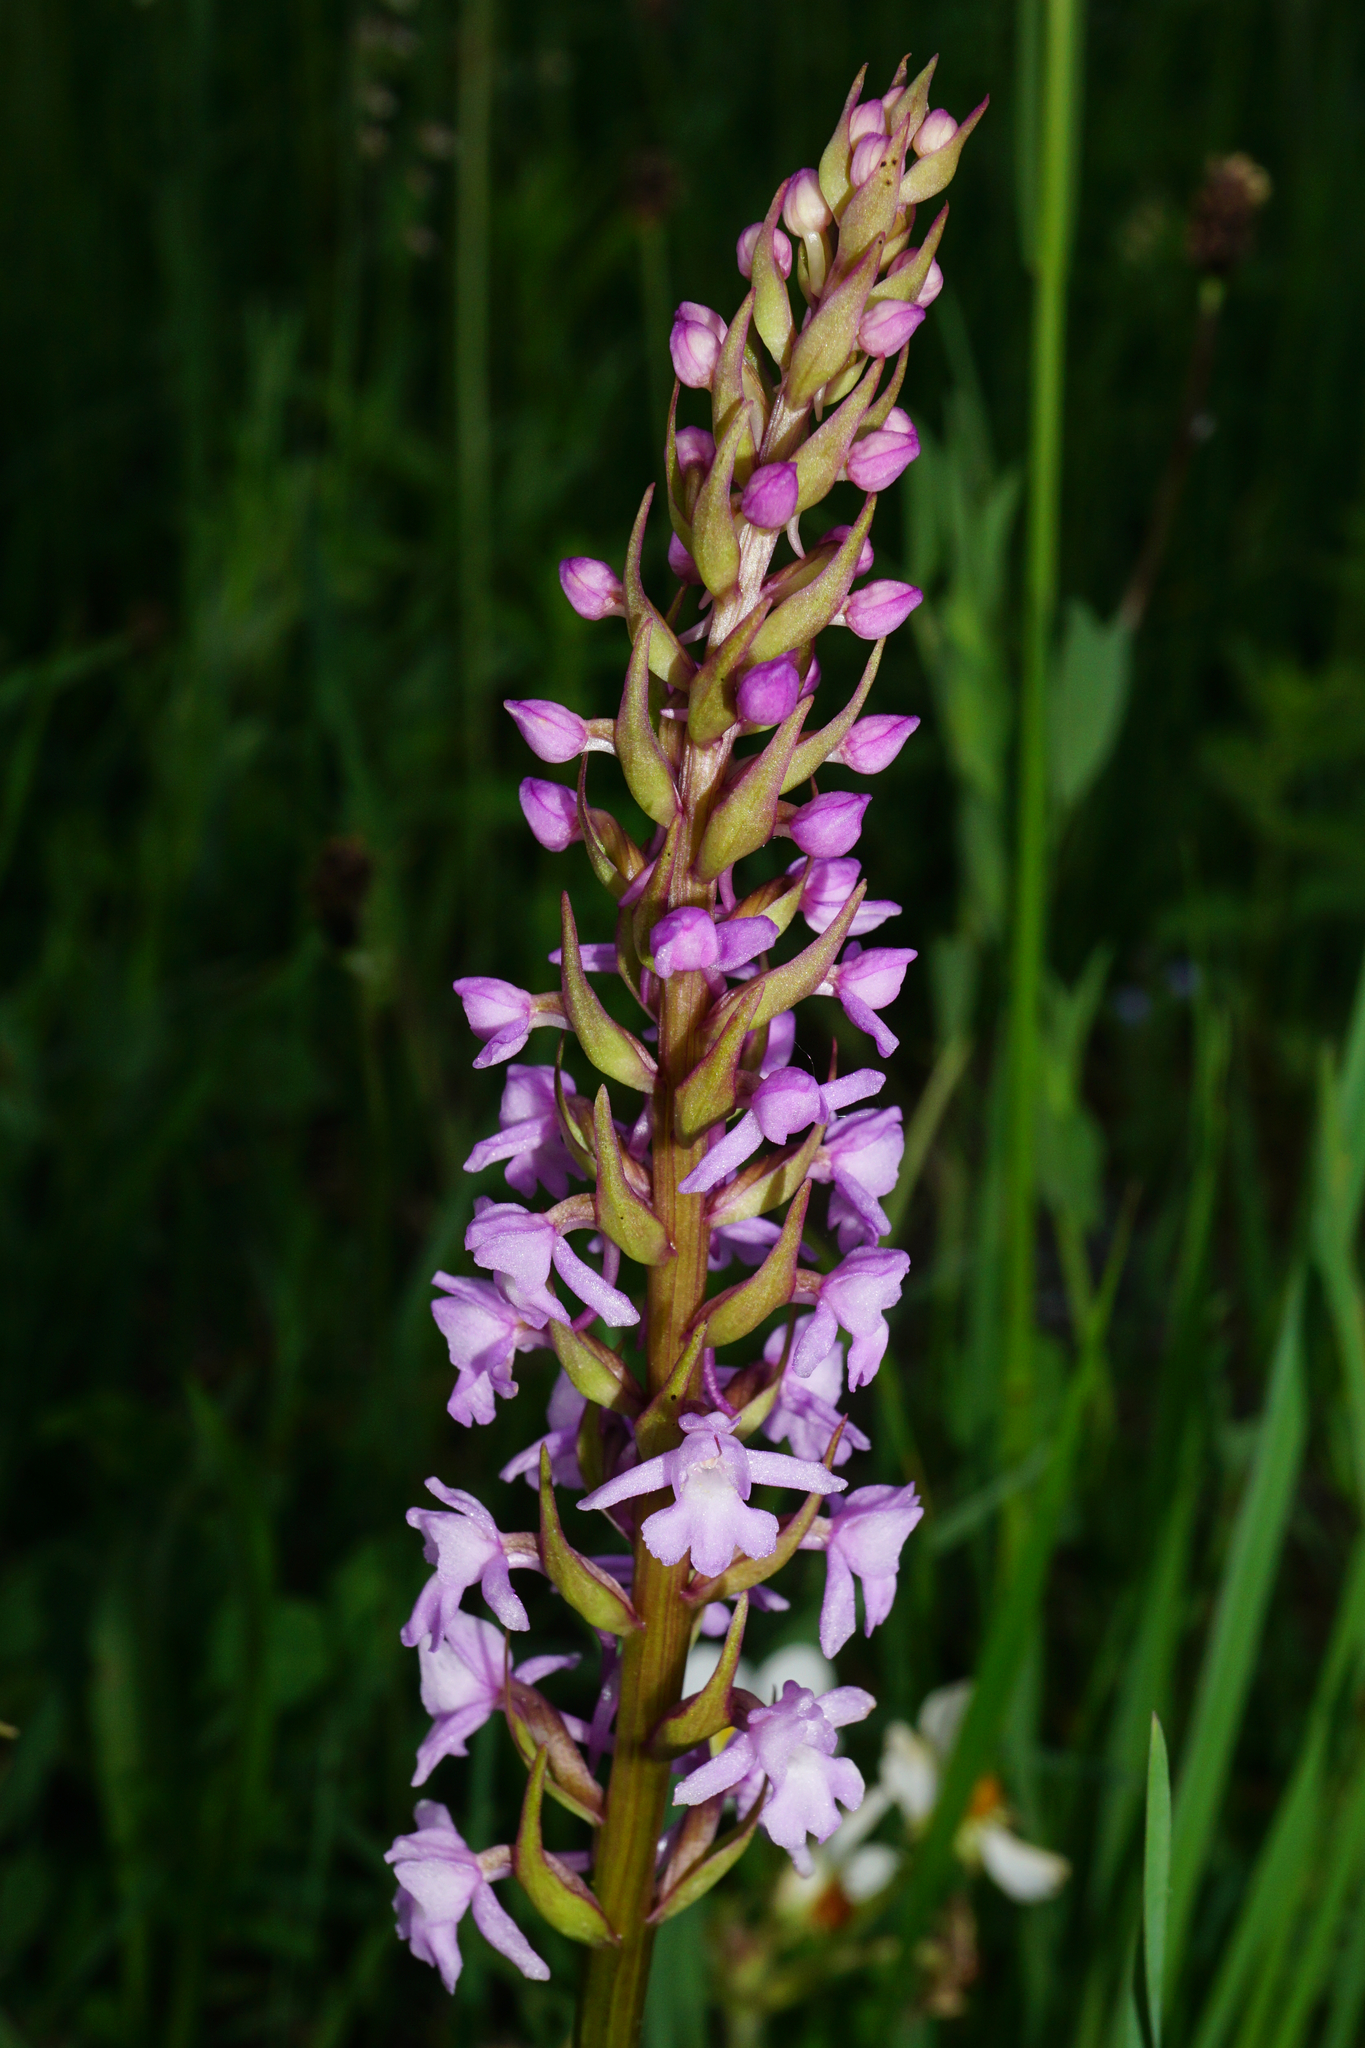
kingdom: Plantae
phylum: Tracheophyta
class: Liliopsida
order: Asparagales
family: Orchidaceae
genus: Gymnadenia
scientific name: Gymnadenia conopsea
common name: Fragrant orchid
